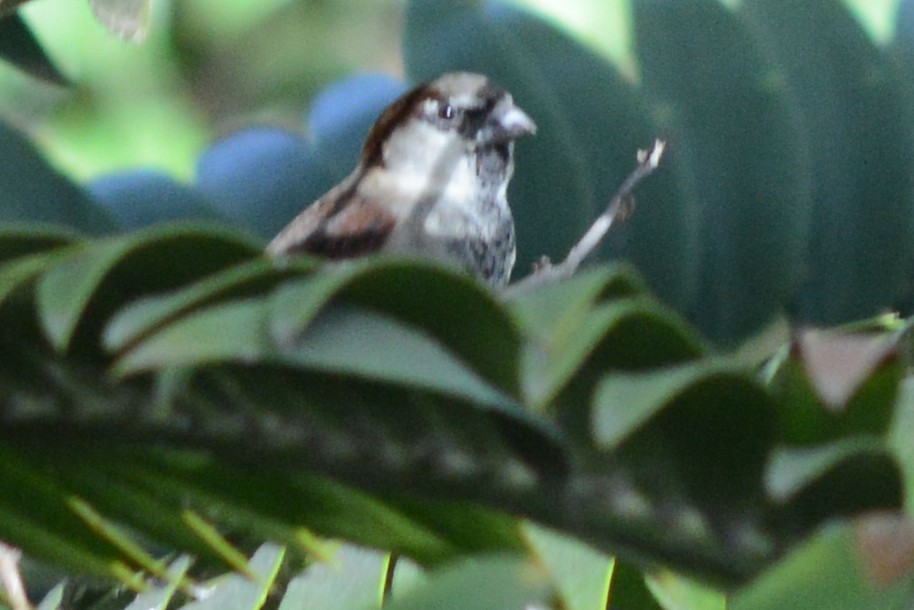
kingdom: Animalia
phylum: Chordata
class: Aves
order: Passeriformes
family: Passeridae
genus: Passer
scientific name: Passer domesticus
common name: House sparrow
